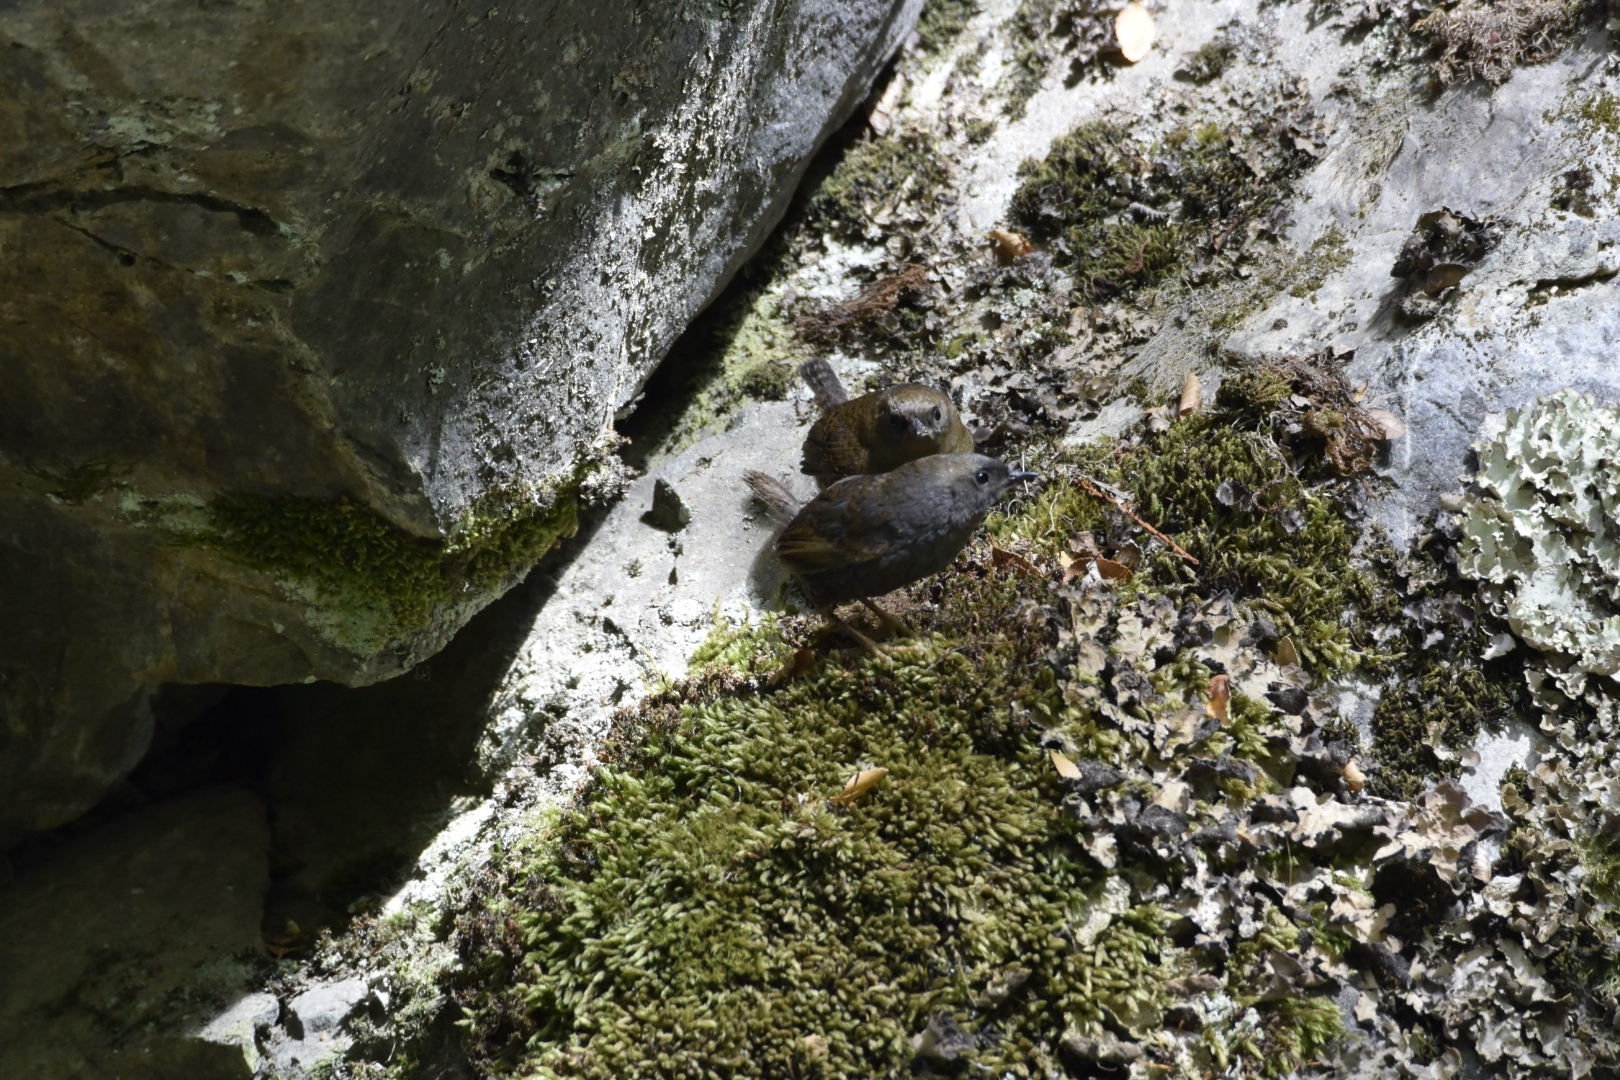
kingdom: Animalia
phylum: Chordata
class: Aves
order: Passeriformes
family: Rhinocryptidae
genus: Scytalopus
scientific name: Scytalopus magellanicus
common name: Magellanic tapaculo
